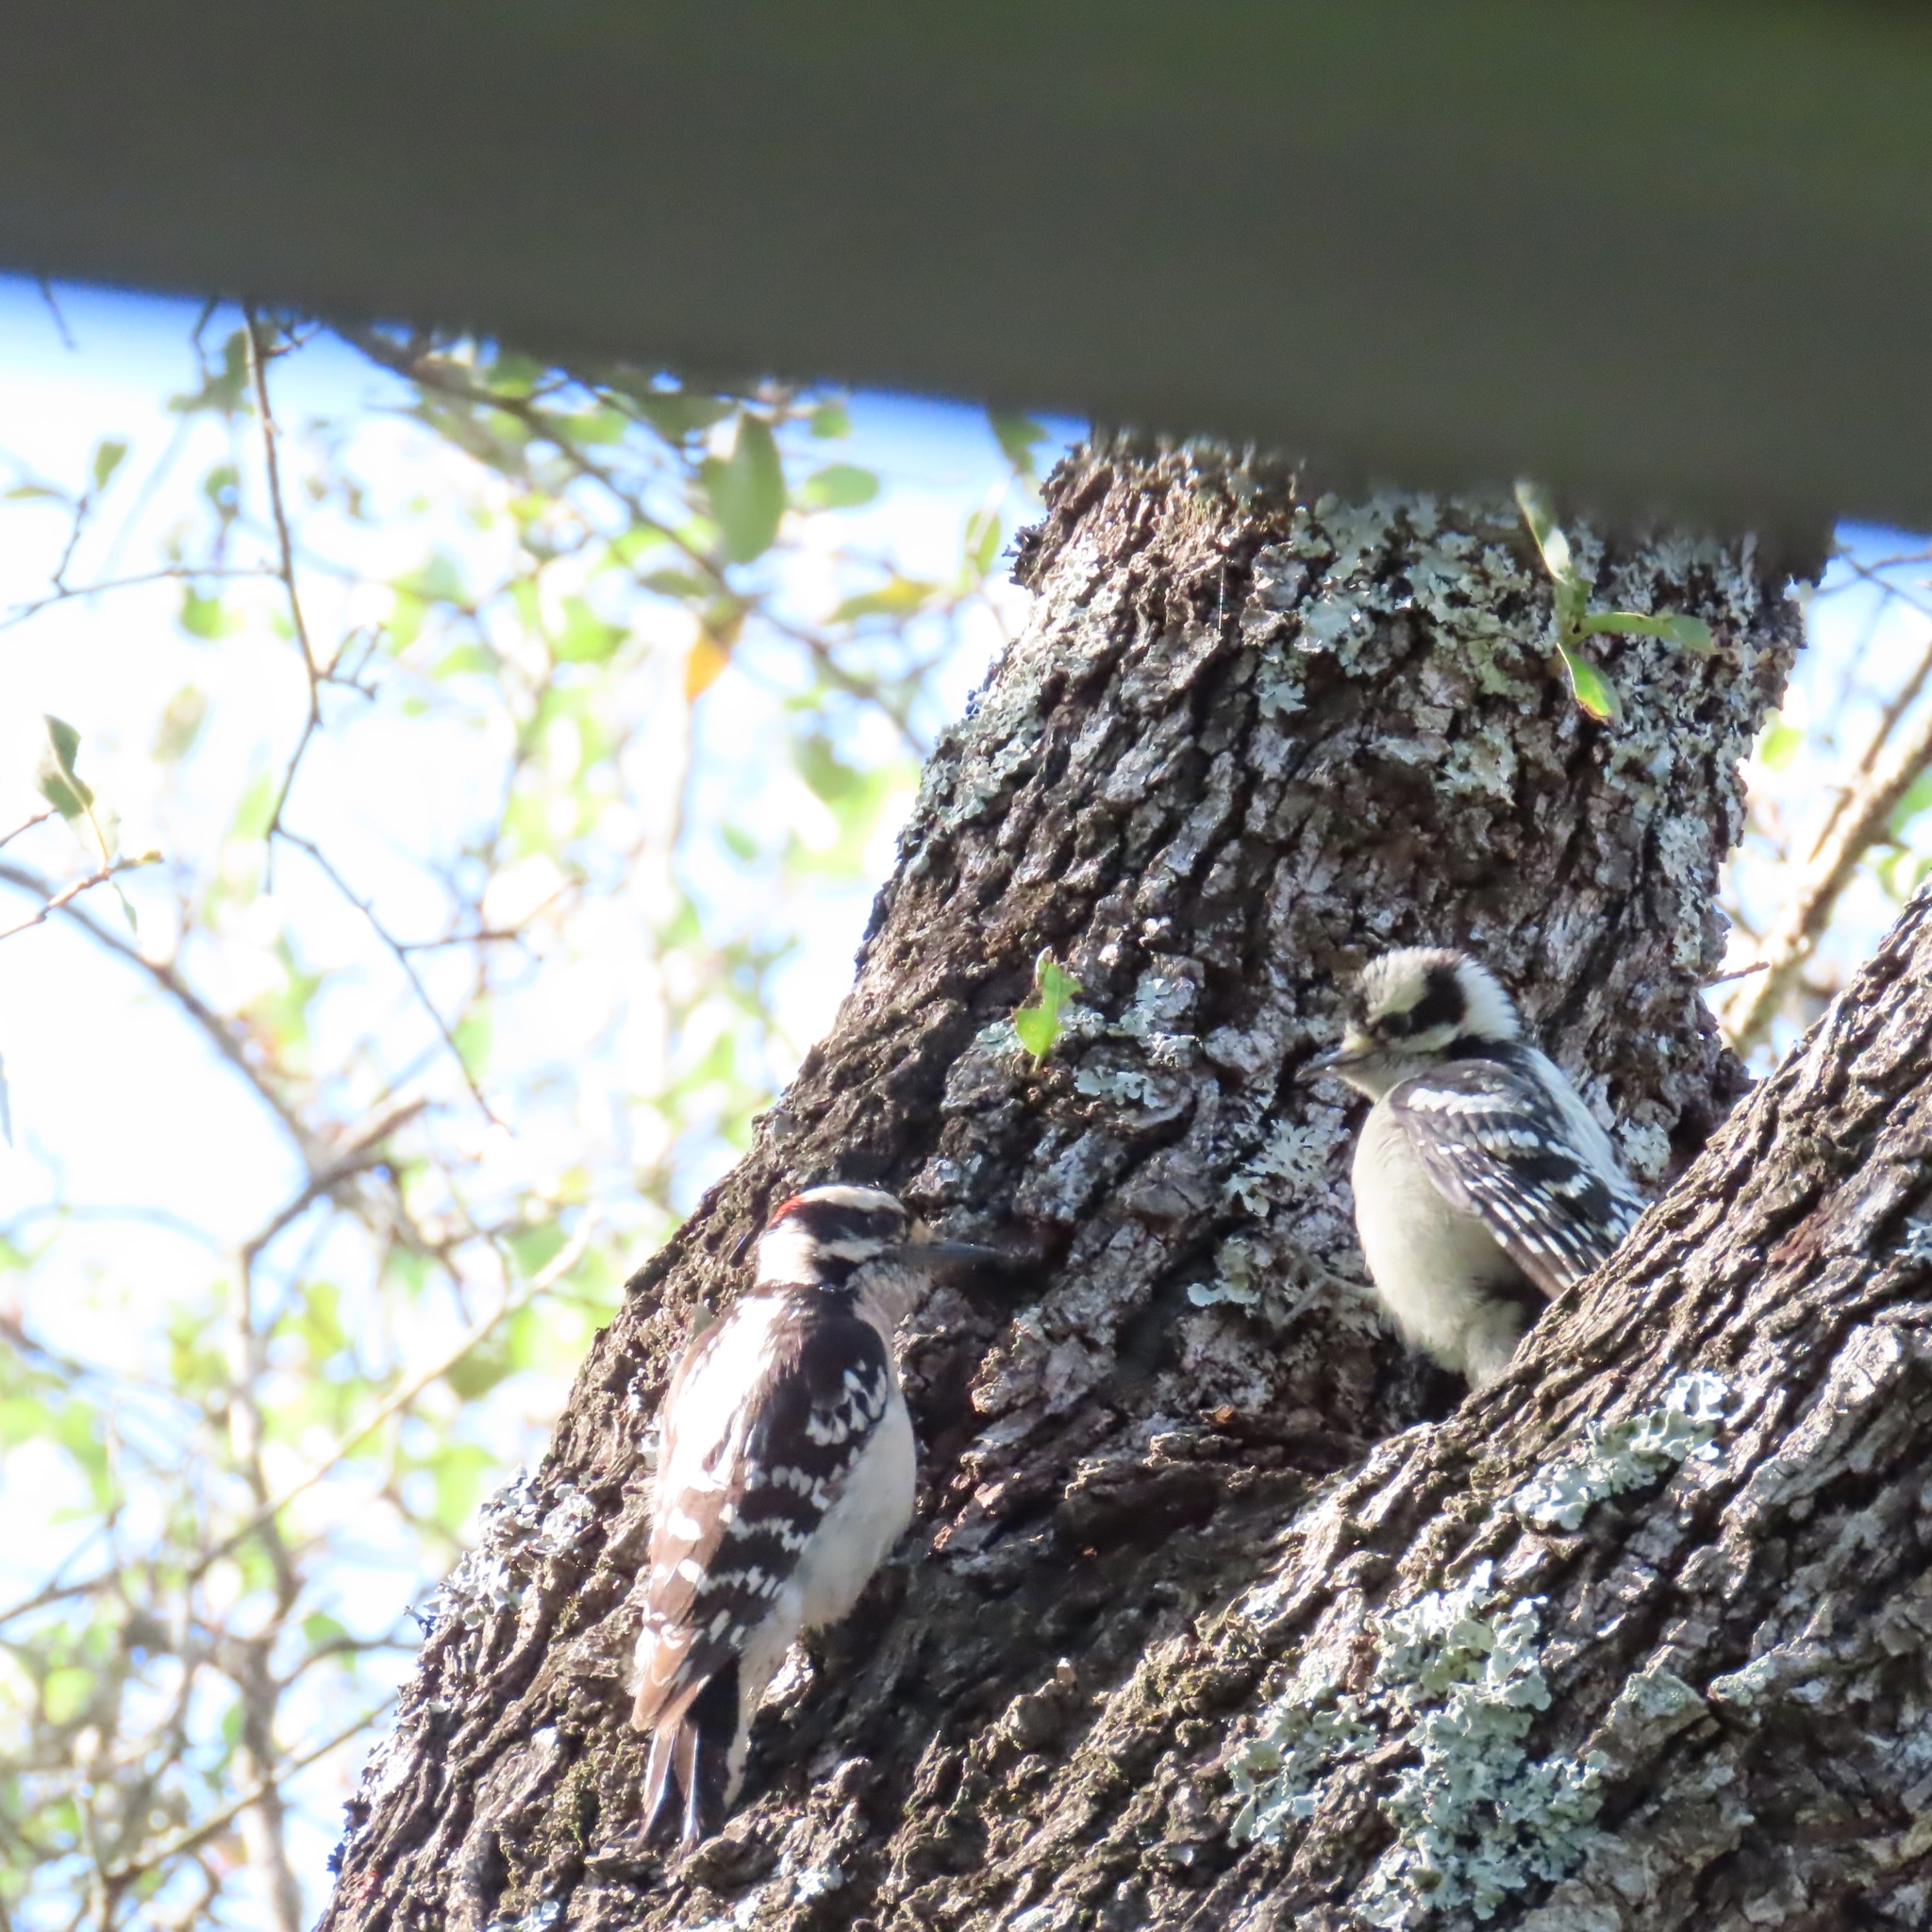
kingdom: Animalia
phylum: Chordata
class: Aves
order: Piciformes
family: Picidae
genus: Dryobates
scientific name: Dryobates pubescens
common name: Downy woodpecker
